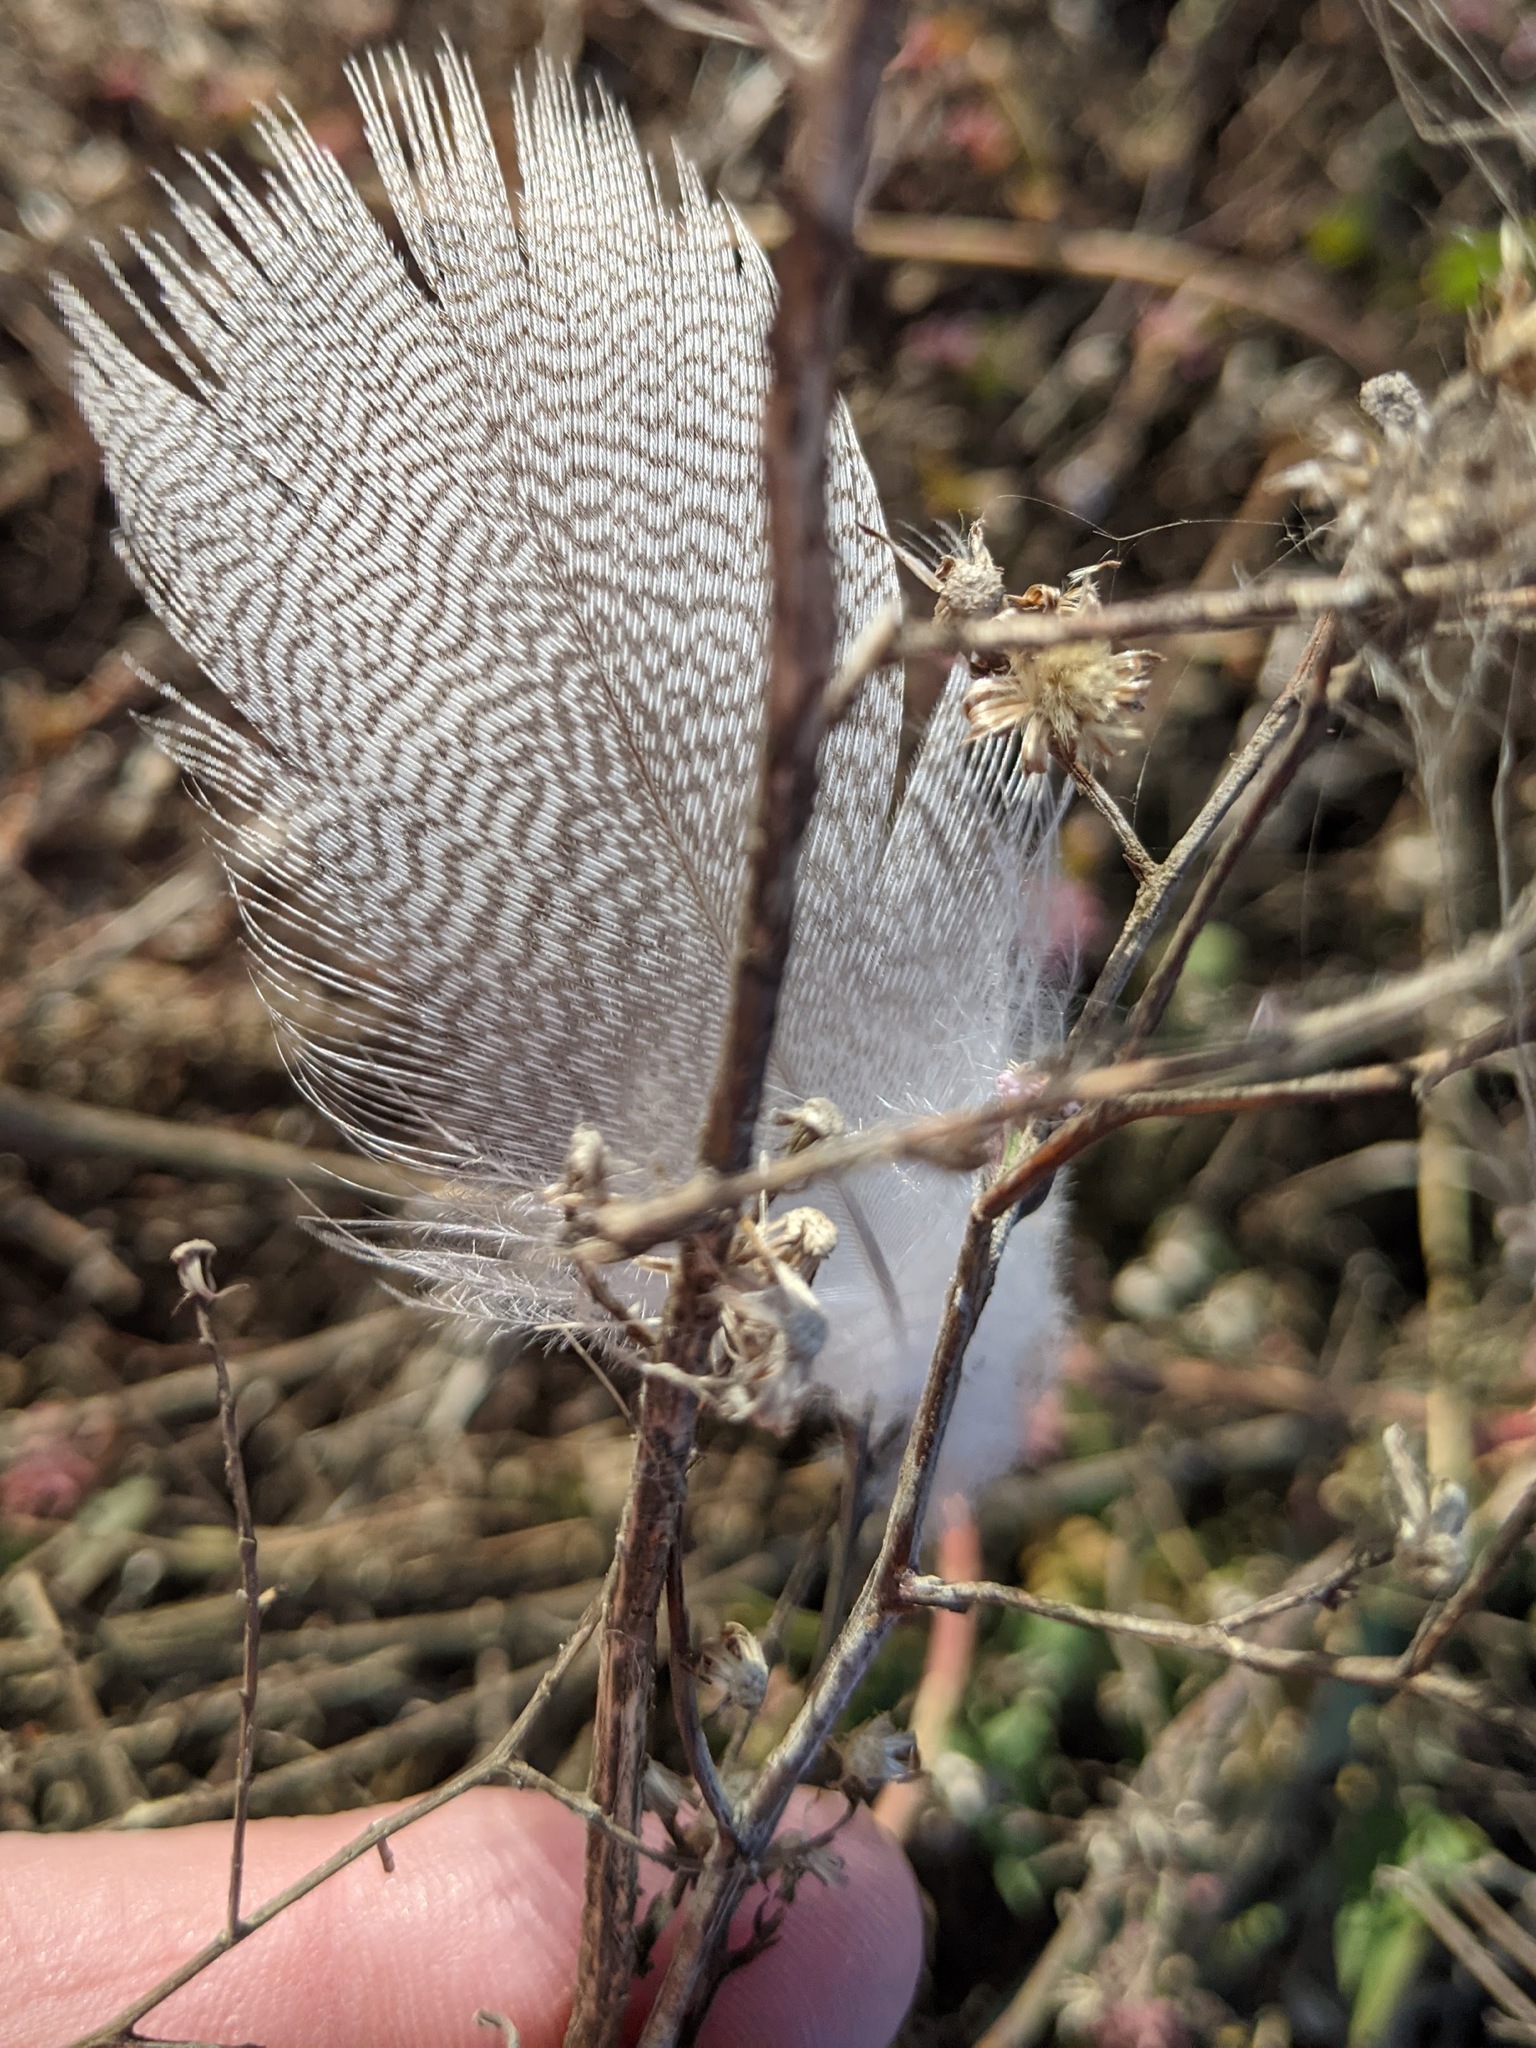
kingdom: Animalia
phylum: Chordata
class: Aves
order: Anseriformes
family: Anatidae
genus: Anas
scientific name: Anas platyrhynchos
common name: Mallard
